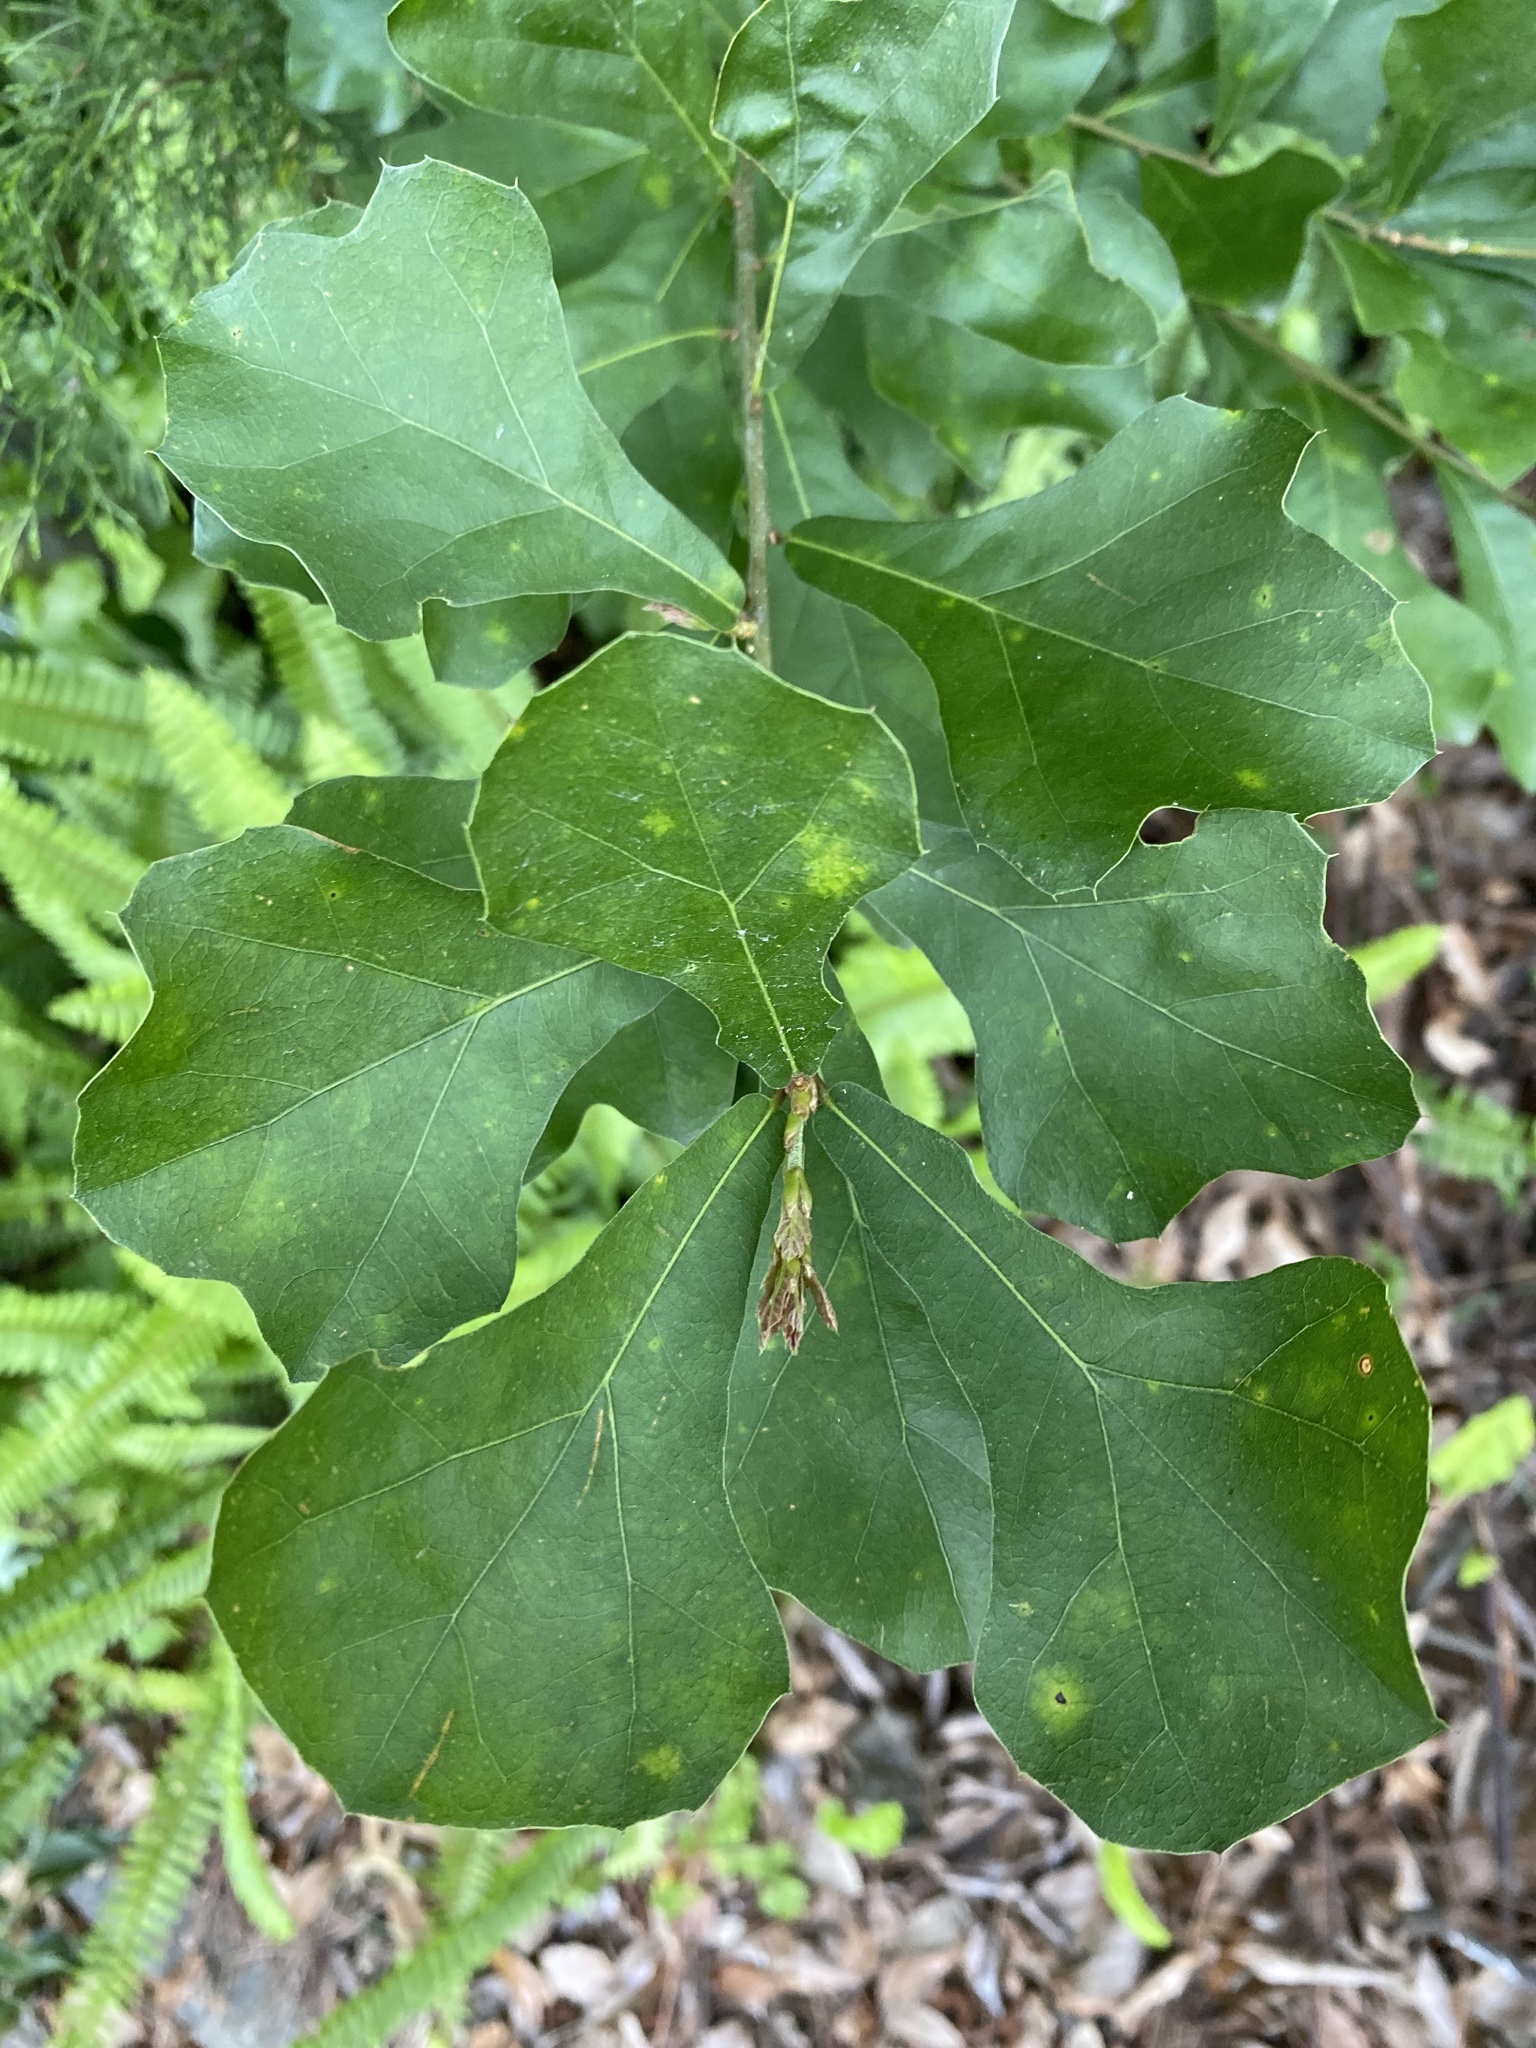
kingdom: Plantae
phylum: Tracheophyta
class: Magnoliopsida
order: Fagales
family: Fagaceae
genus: Quercus
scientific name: Quercus nigra
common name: Water oak
